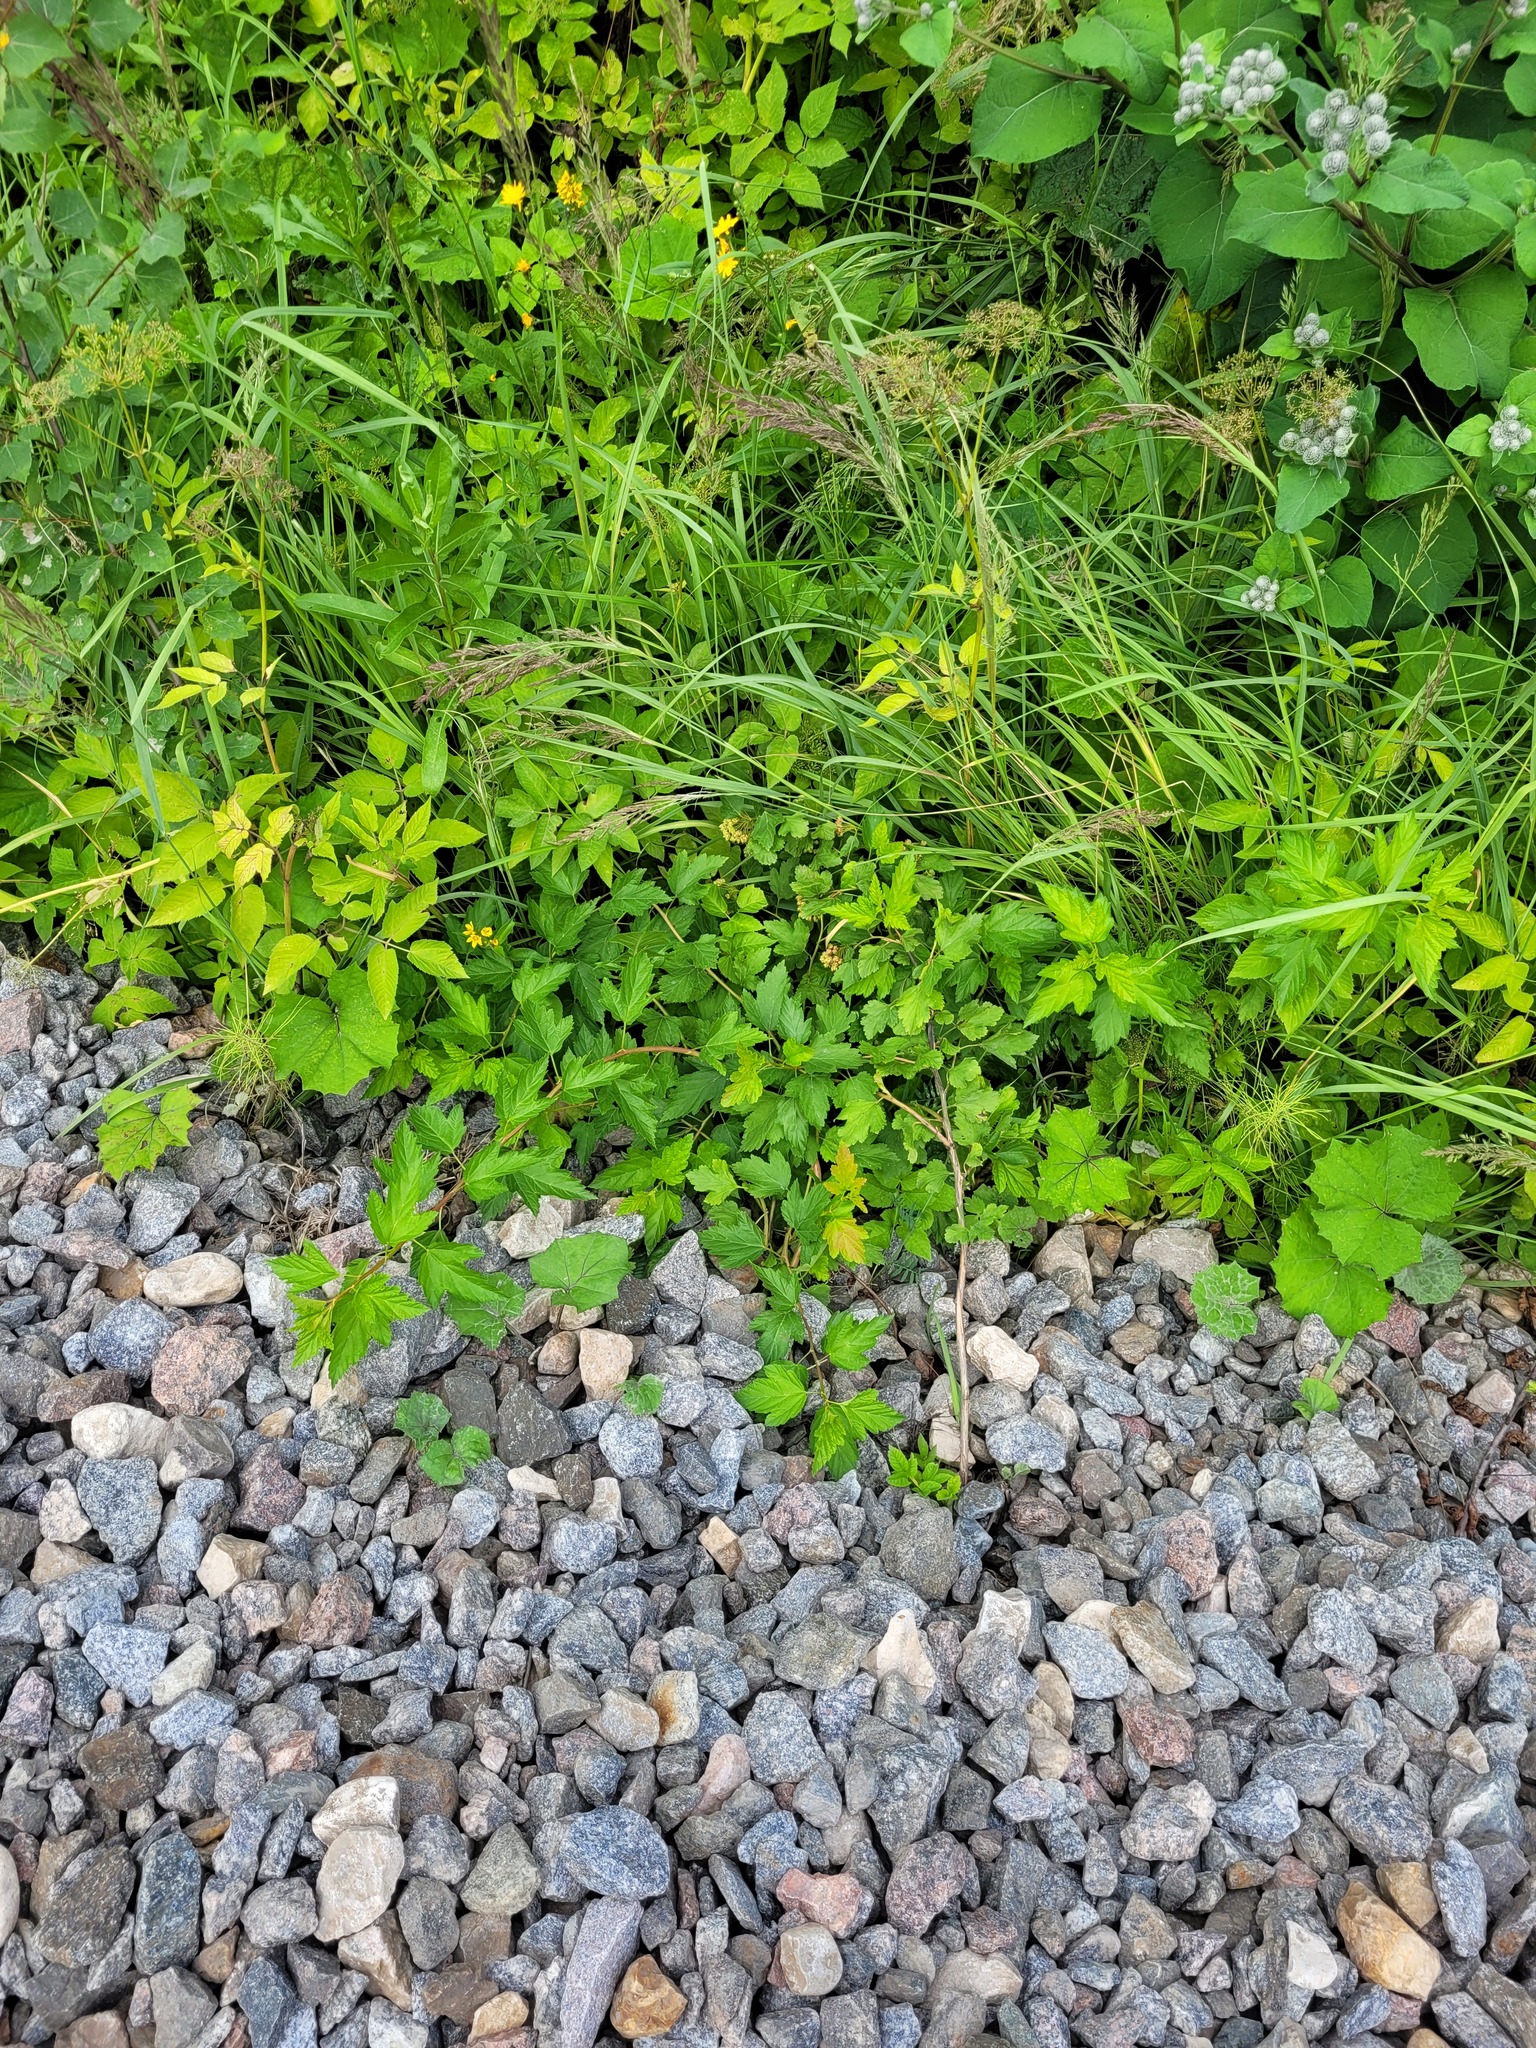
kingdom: Plantae
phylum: Tracheophyta
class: Magnoliopsida
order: Rosales
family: Rosaceae
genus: Physocarpus
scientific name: Physocarpus opulifolius
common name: Ninebark
